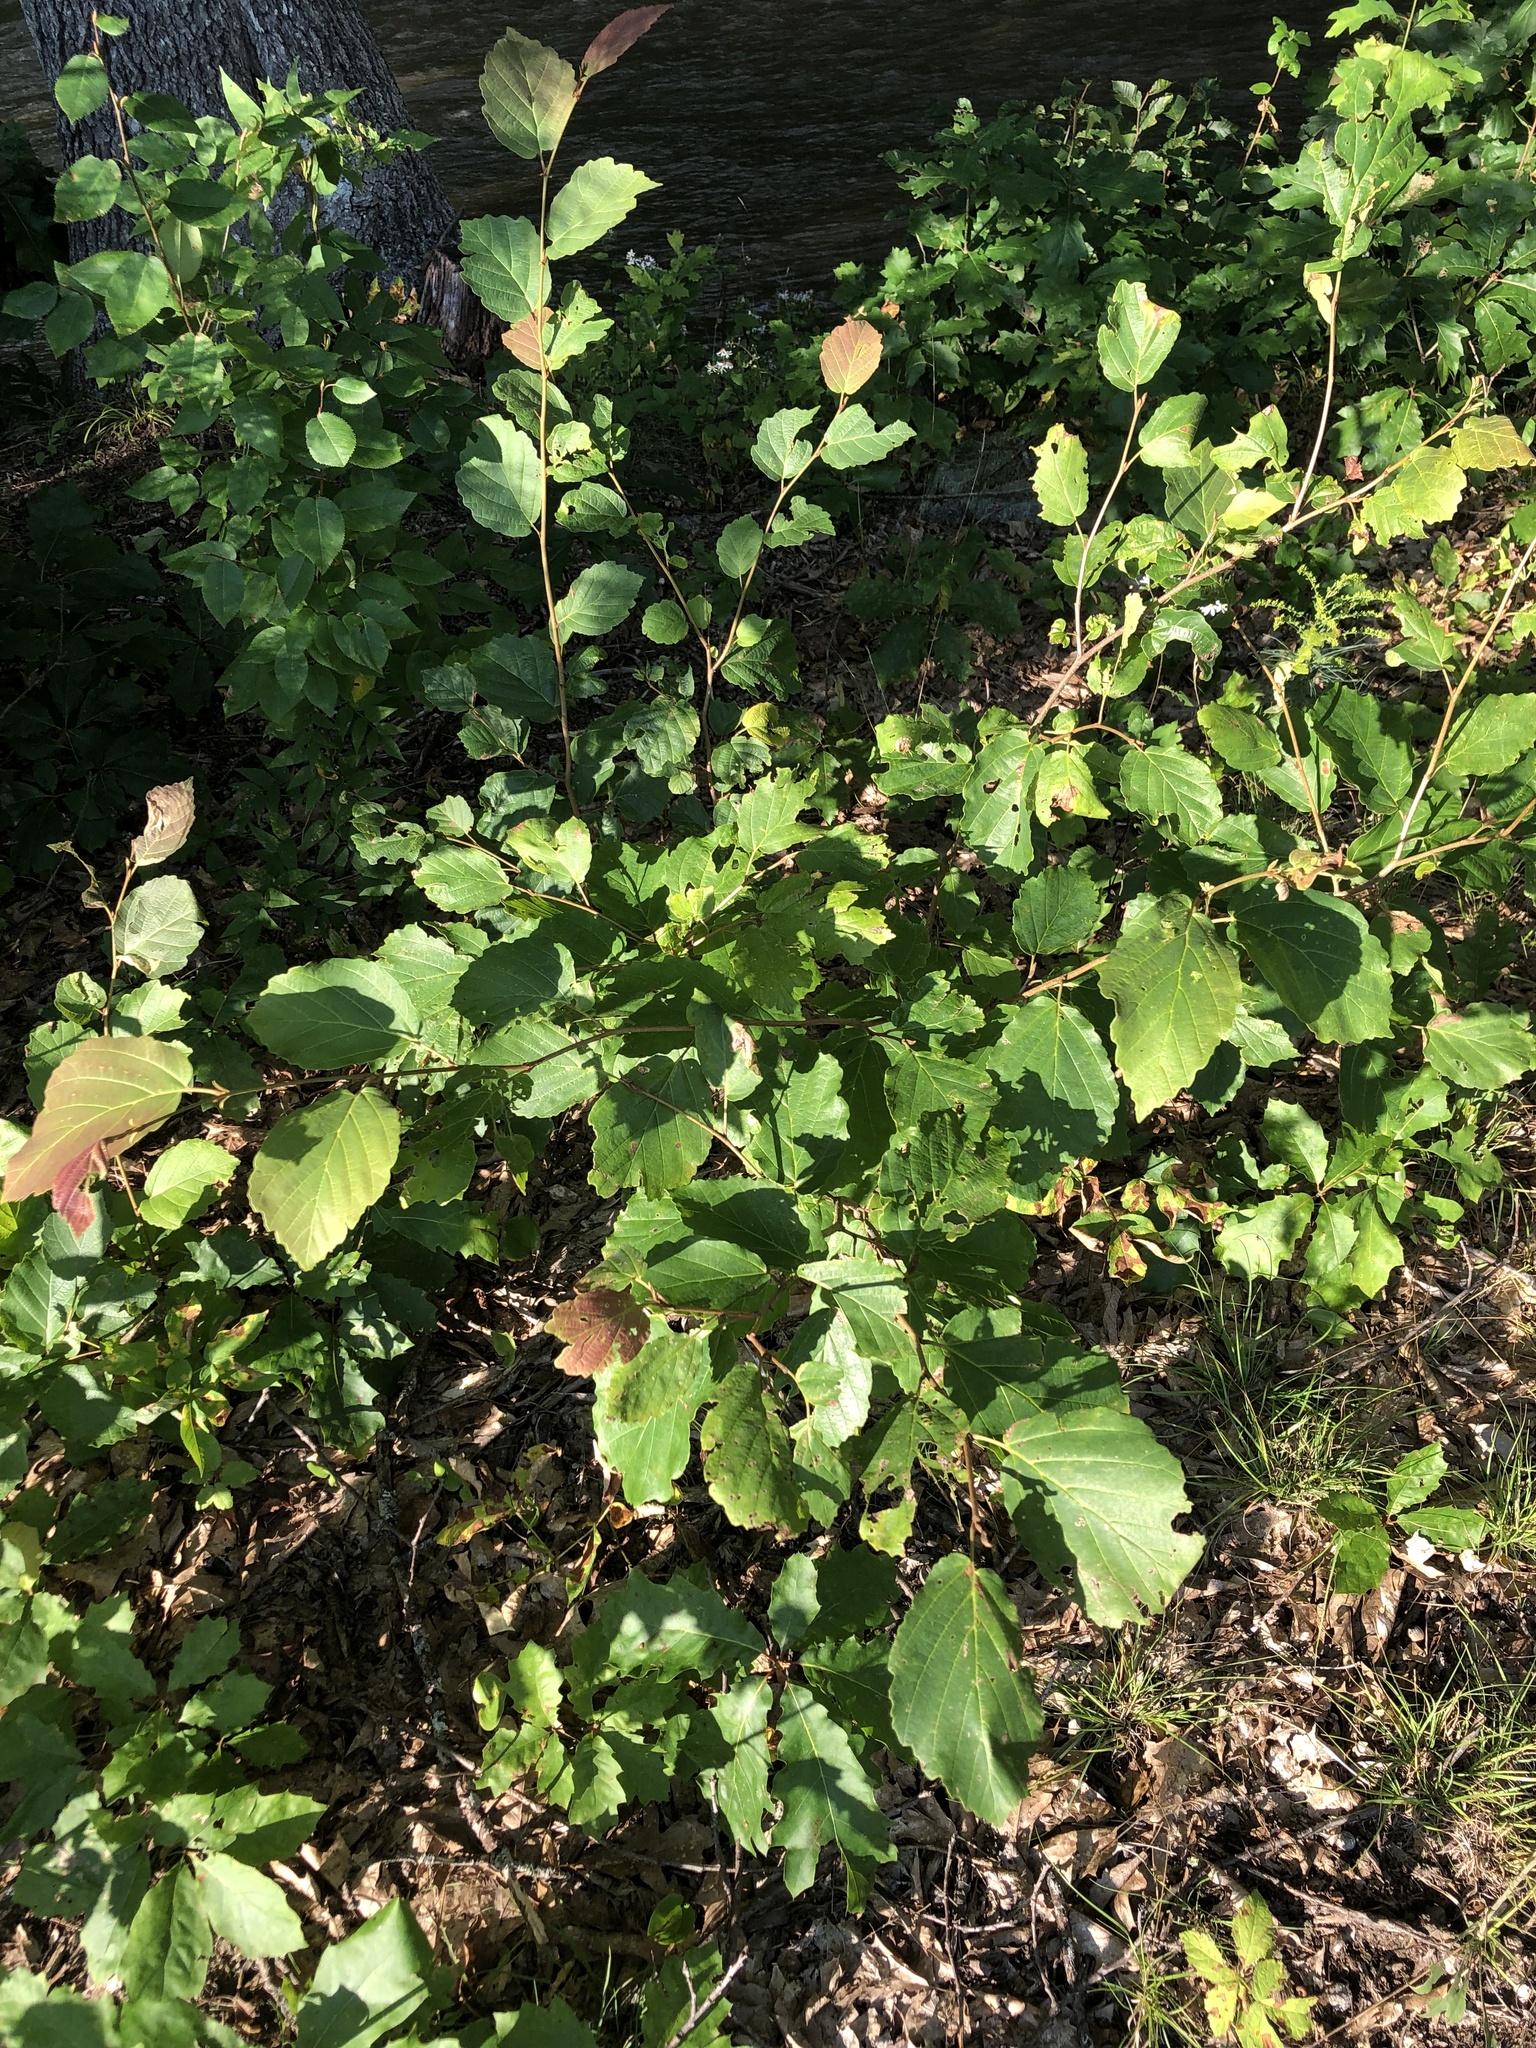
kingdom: Plantae
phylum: Tracheophyta
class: Magnoliopsida
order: Saxifragales
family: Hamamelidaceae
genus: Hamamelis
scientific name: Hamamelis virginiana
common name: Witch-hazel
